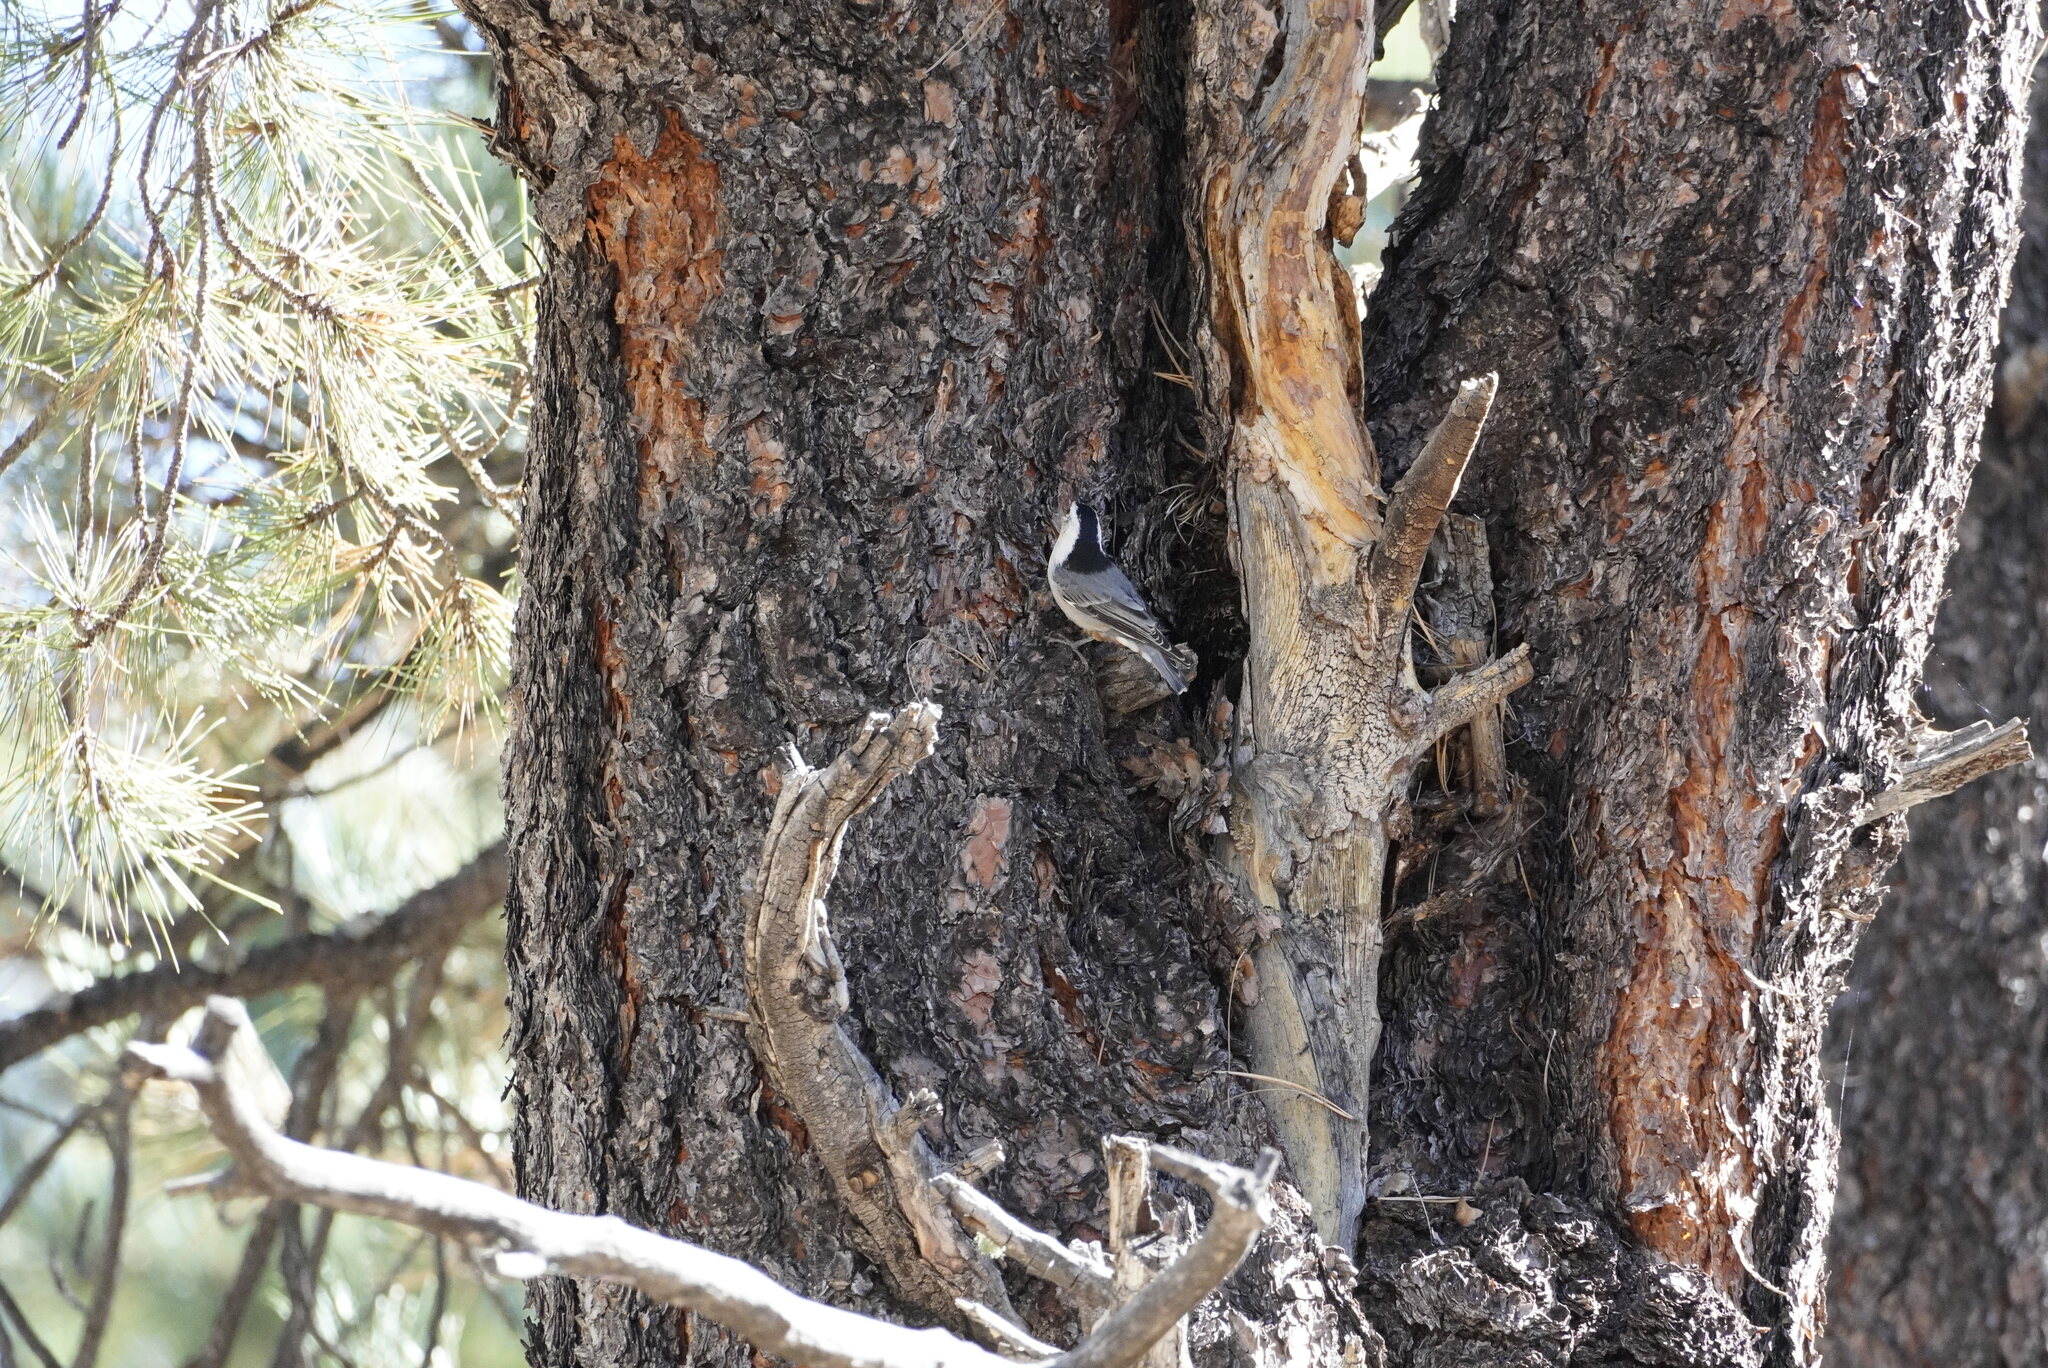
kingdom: Animalia
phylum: Chordata
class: Aves
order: Passeriformes
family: Sittidae
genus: Sitta
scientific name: Sitta carolinensis
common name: White-breasted nuthatch
